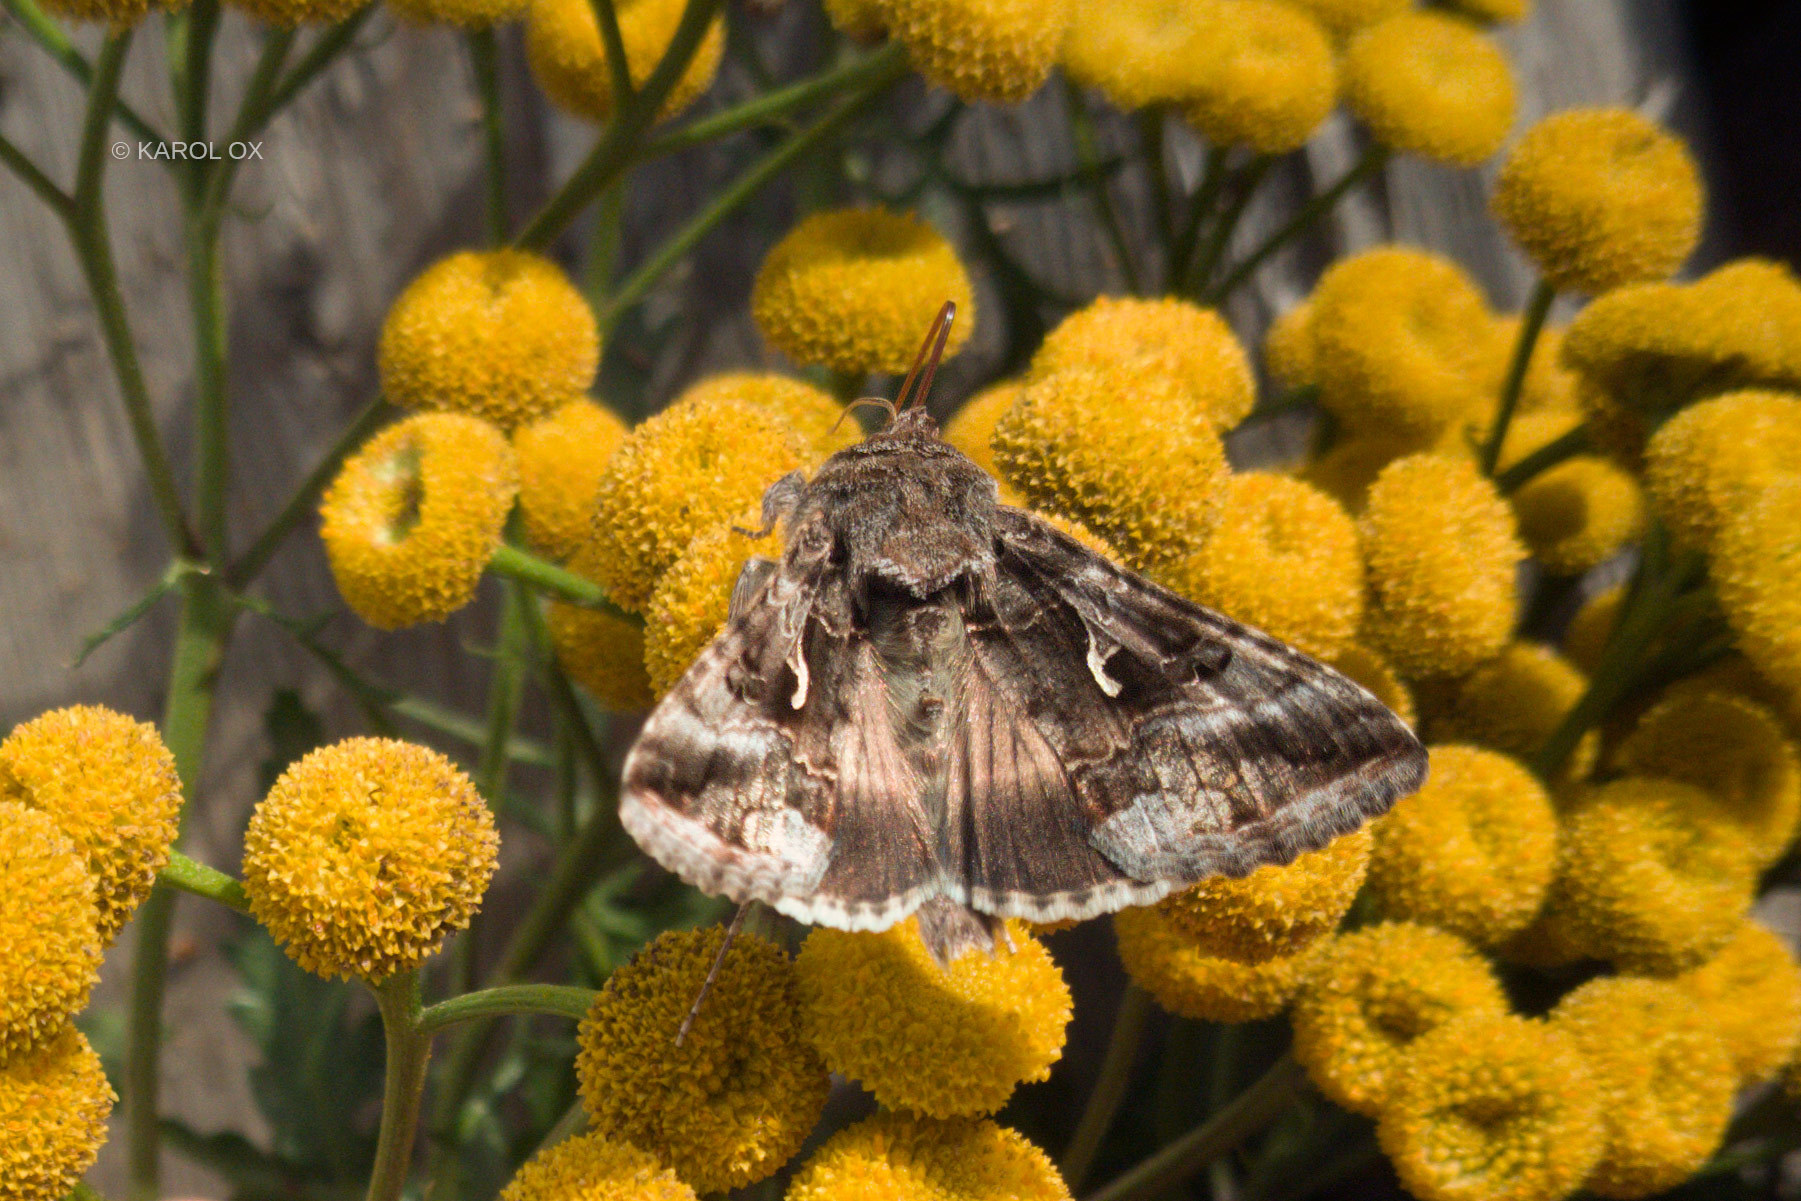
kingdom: Animalia
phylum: Arthropoda
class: Insecta
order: Lepidoptera
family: Noctuidae
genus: Autographa
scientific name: Autographa gamma
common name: Silver y
